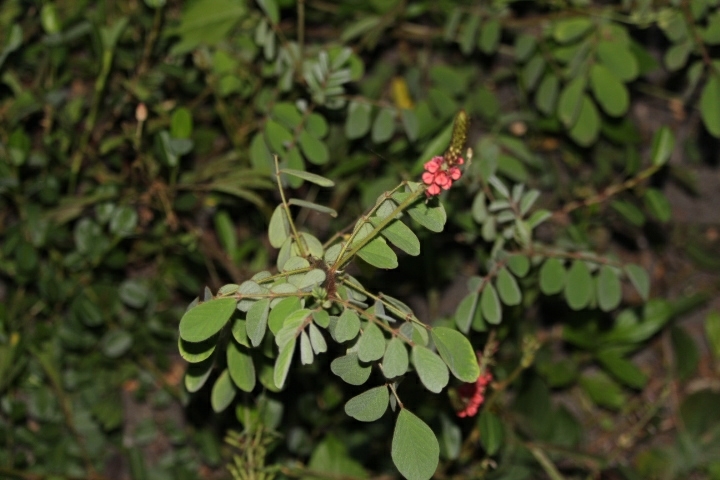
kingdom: Plantae
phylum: Tracheophyta
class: Magnoliopsida
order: Fabales
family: Fabaceae
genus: Indigofera
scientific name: Indigofera hirsuta
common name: Hairy indigo
